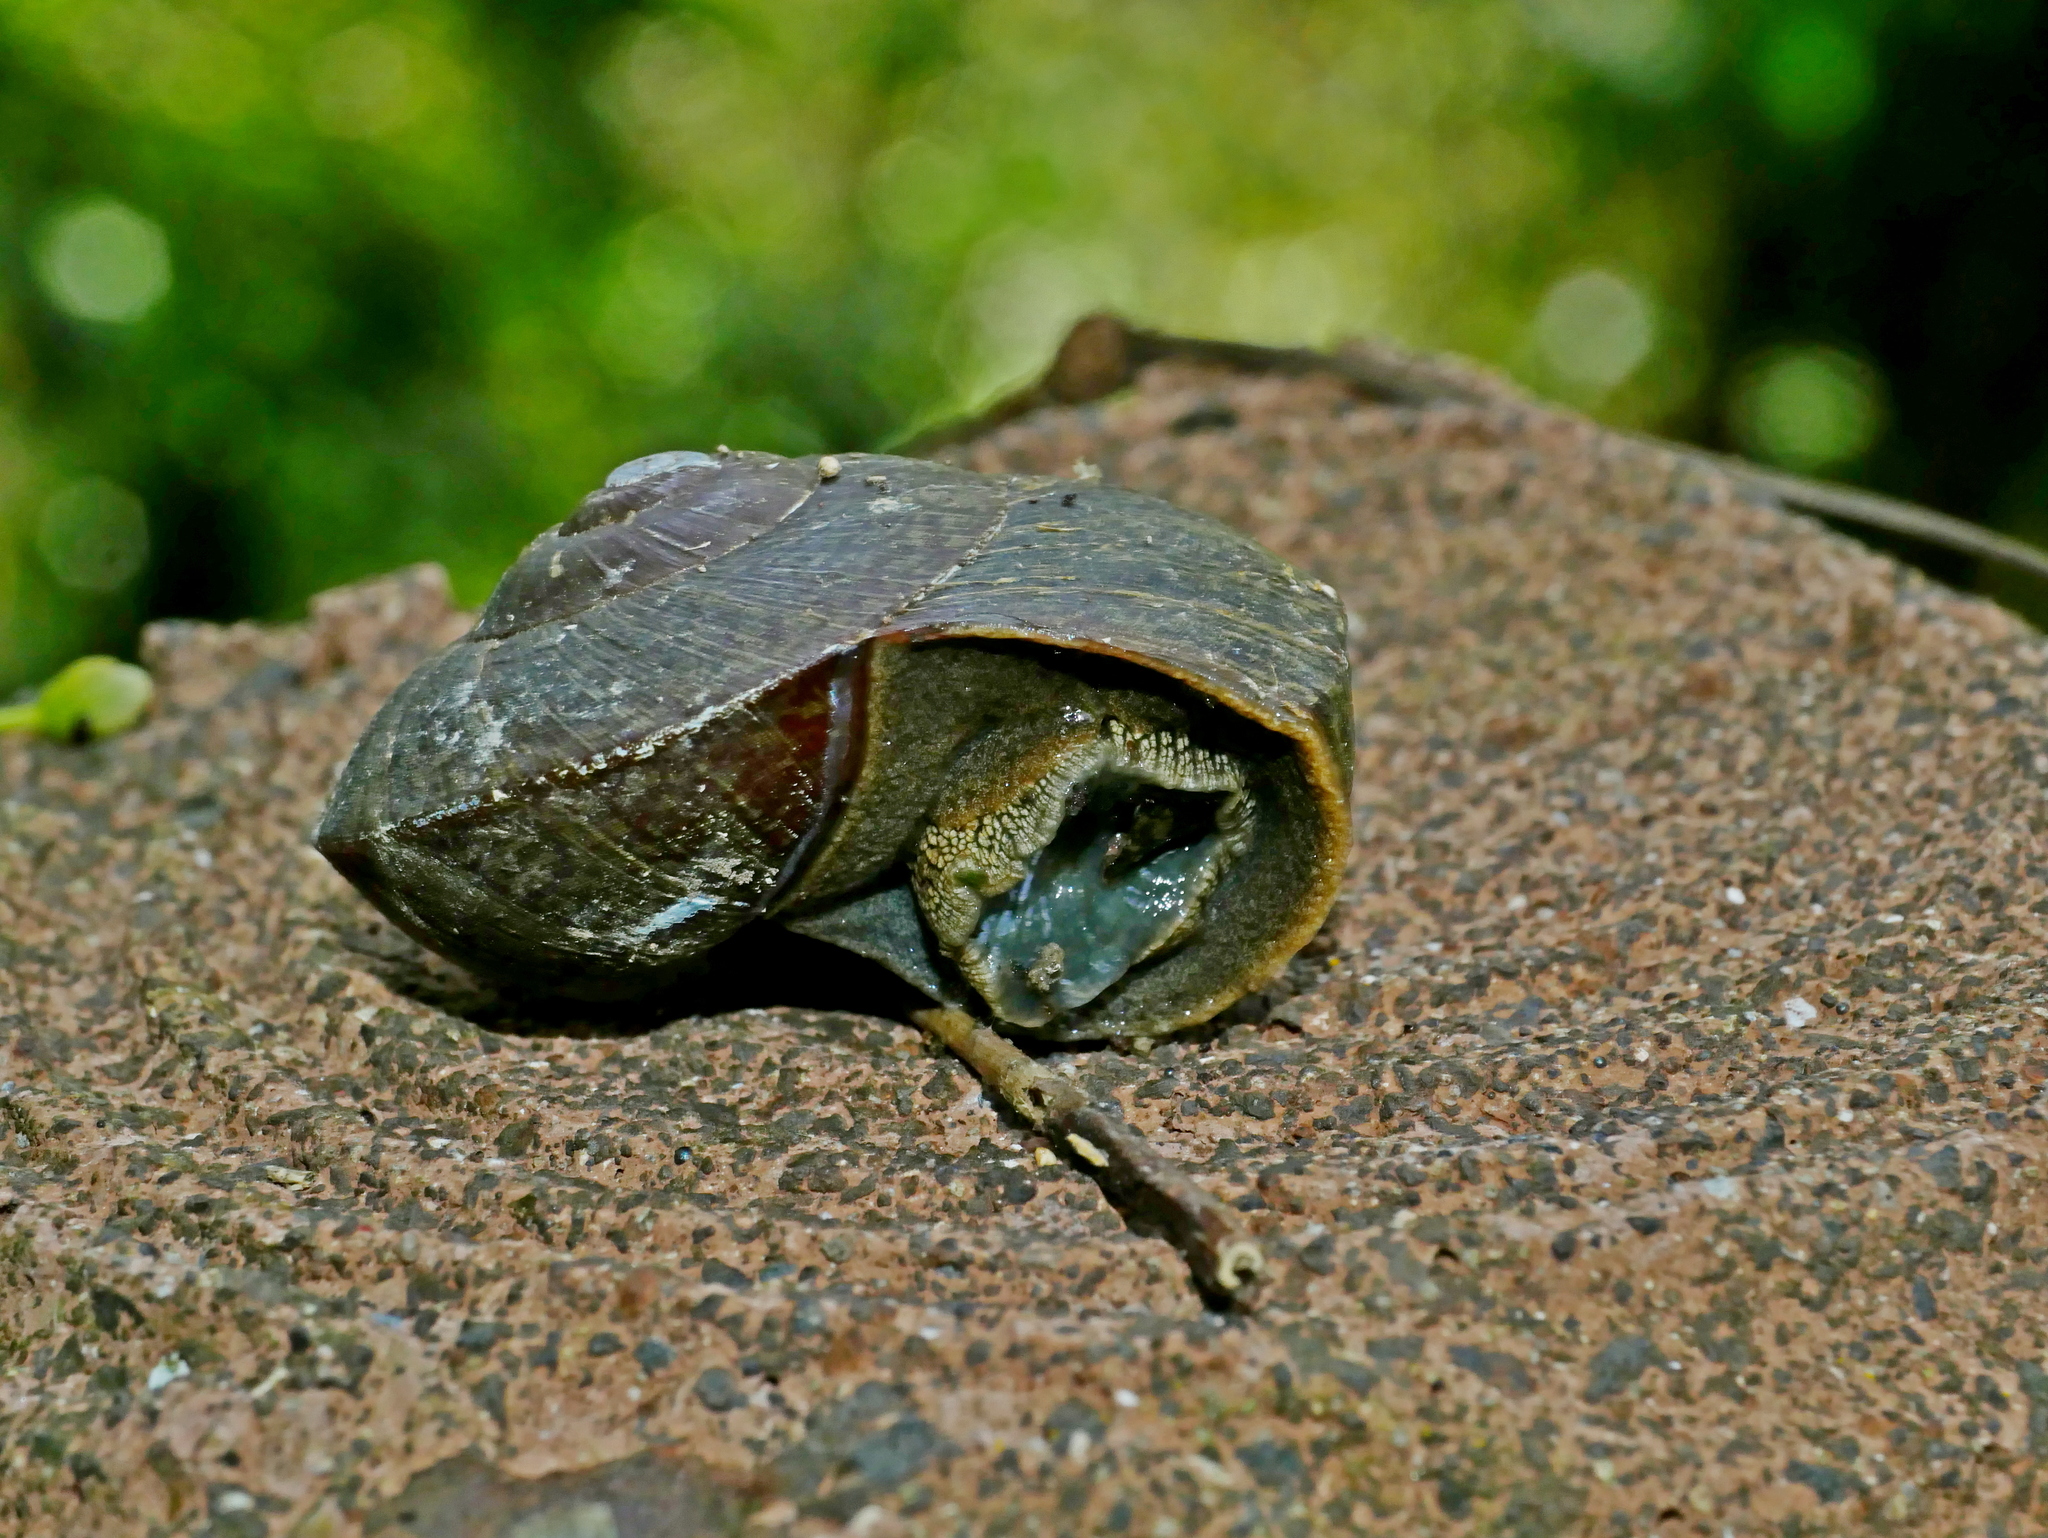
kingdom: Animalia
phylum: Mollusca
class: Gastropoda
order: Stylommatophora
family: Camaenidae
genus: Nesiohelix
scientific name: Nesiohelix swinhoei
